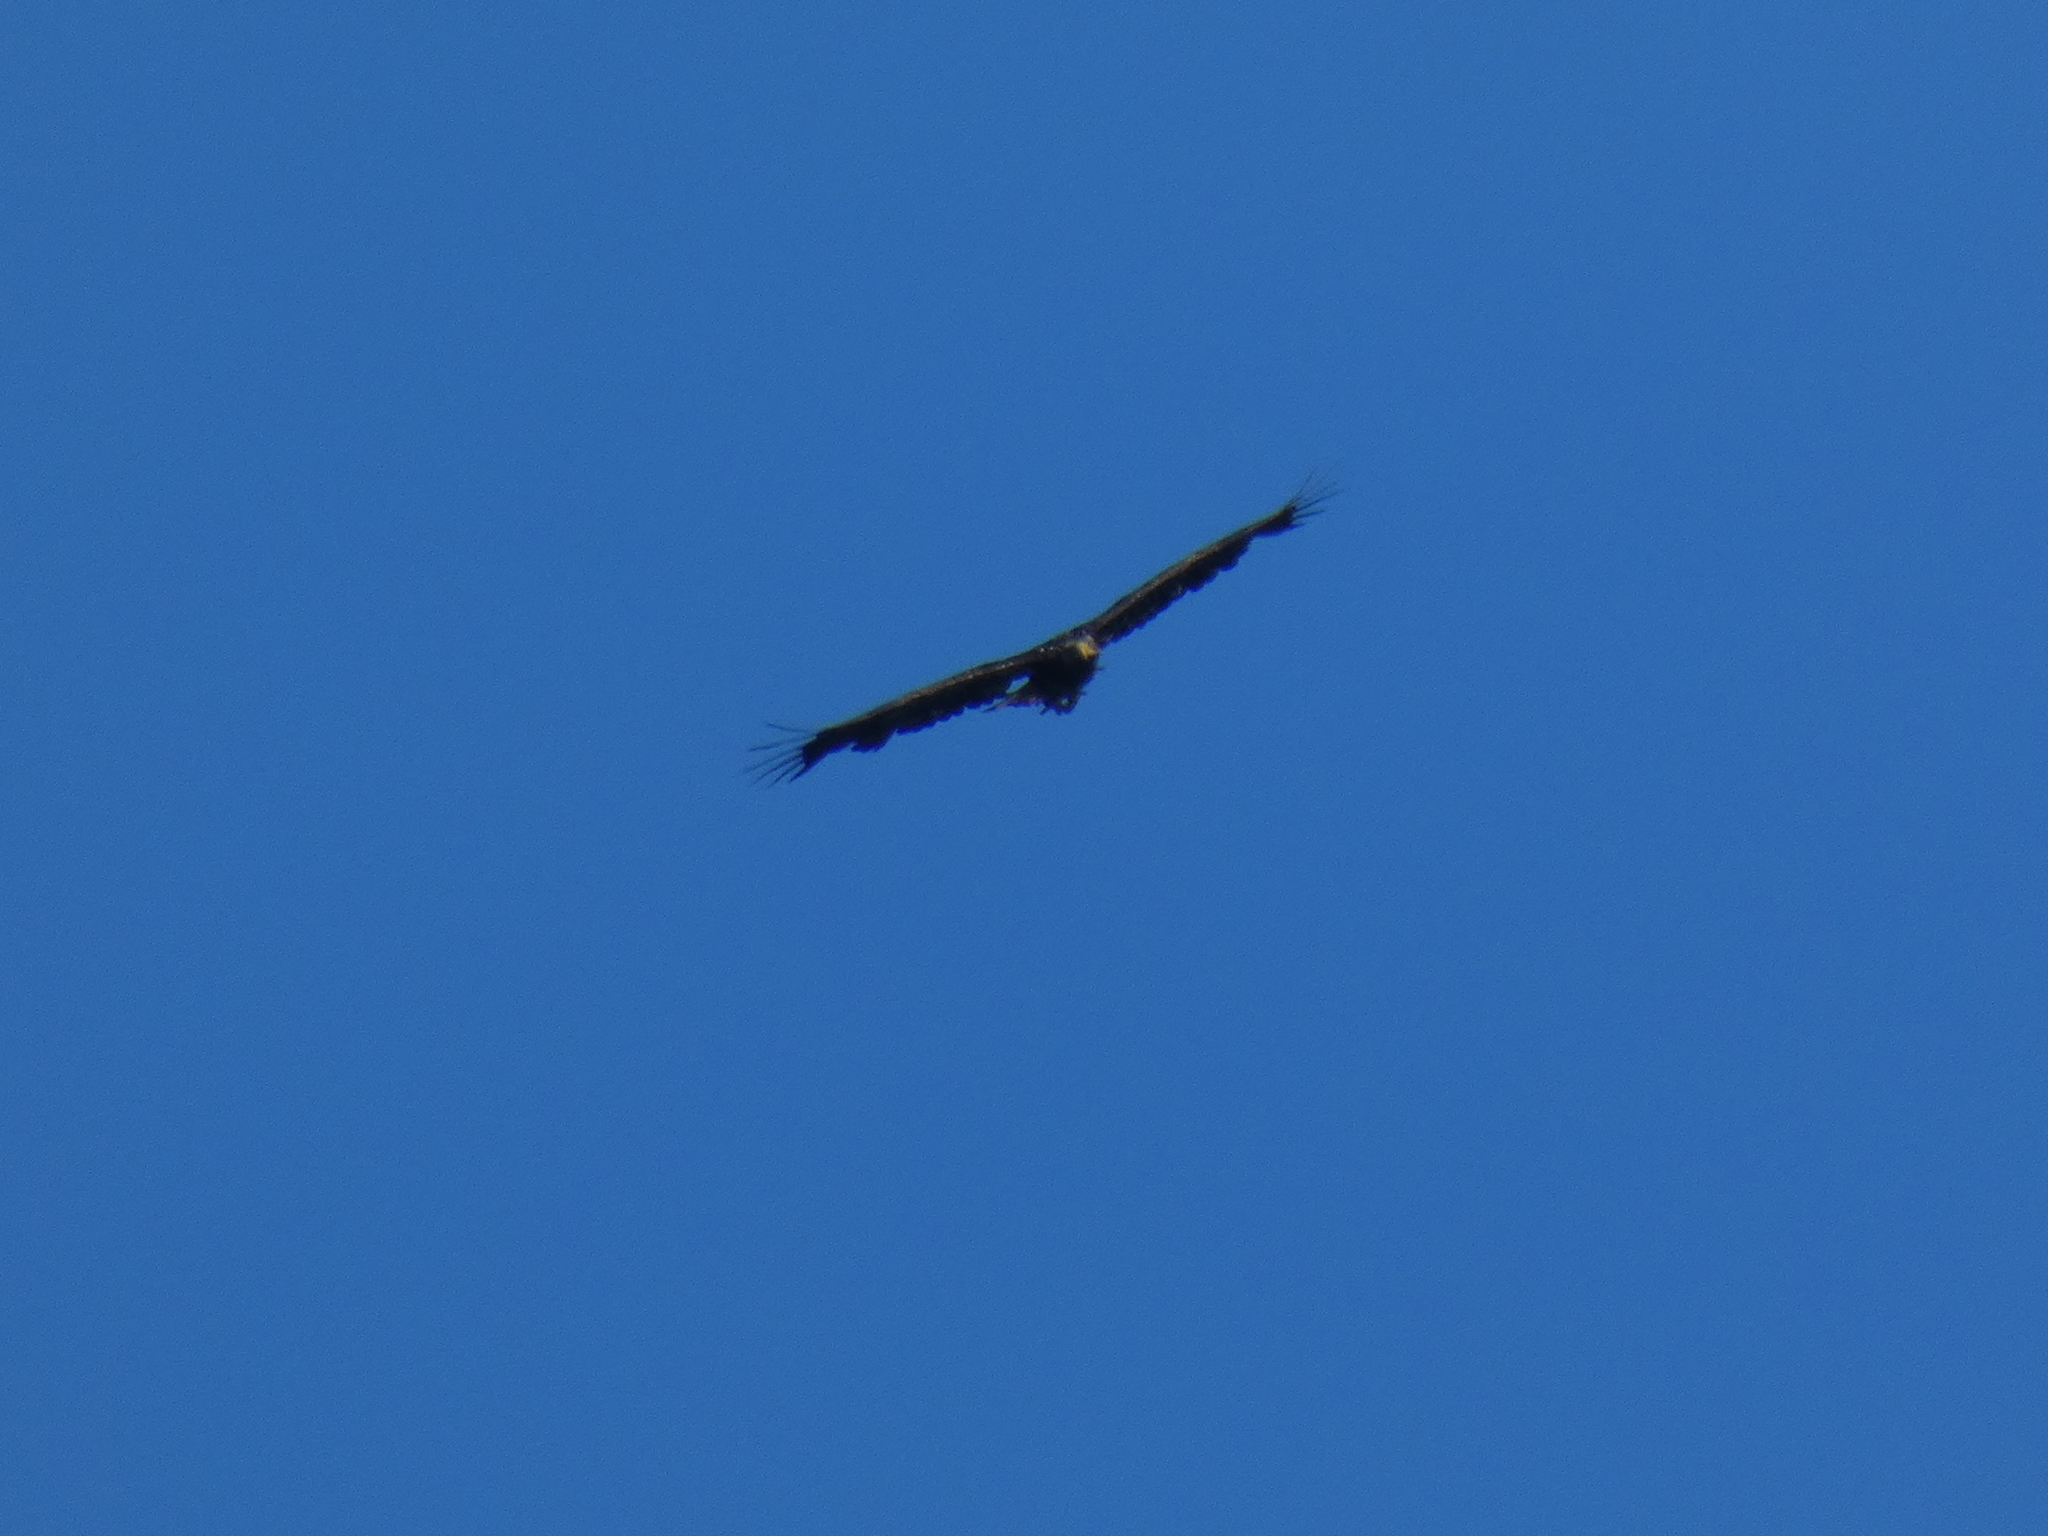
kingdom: Animalia
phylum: Chordata
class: Aves
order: Accipitriformes
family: Accipitridae
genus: Haliaeetus
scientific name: Haliaeetus leucocephalus
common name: Bald eagle
